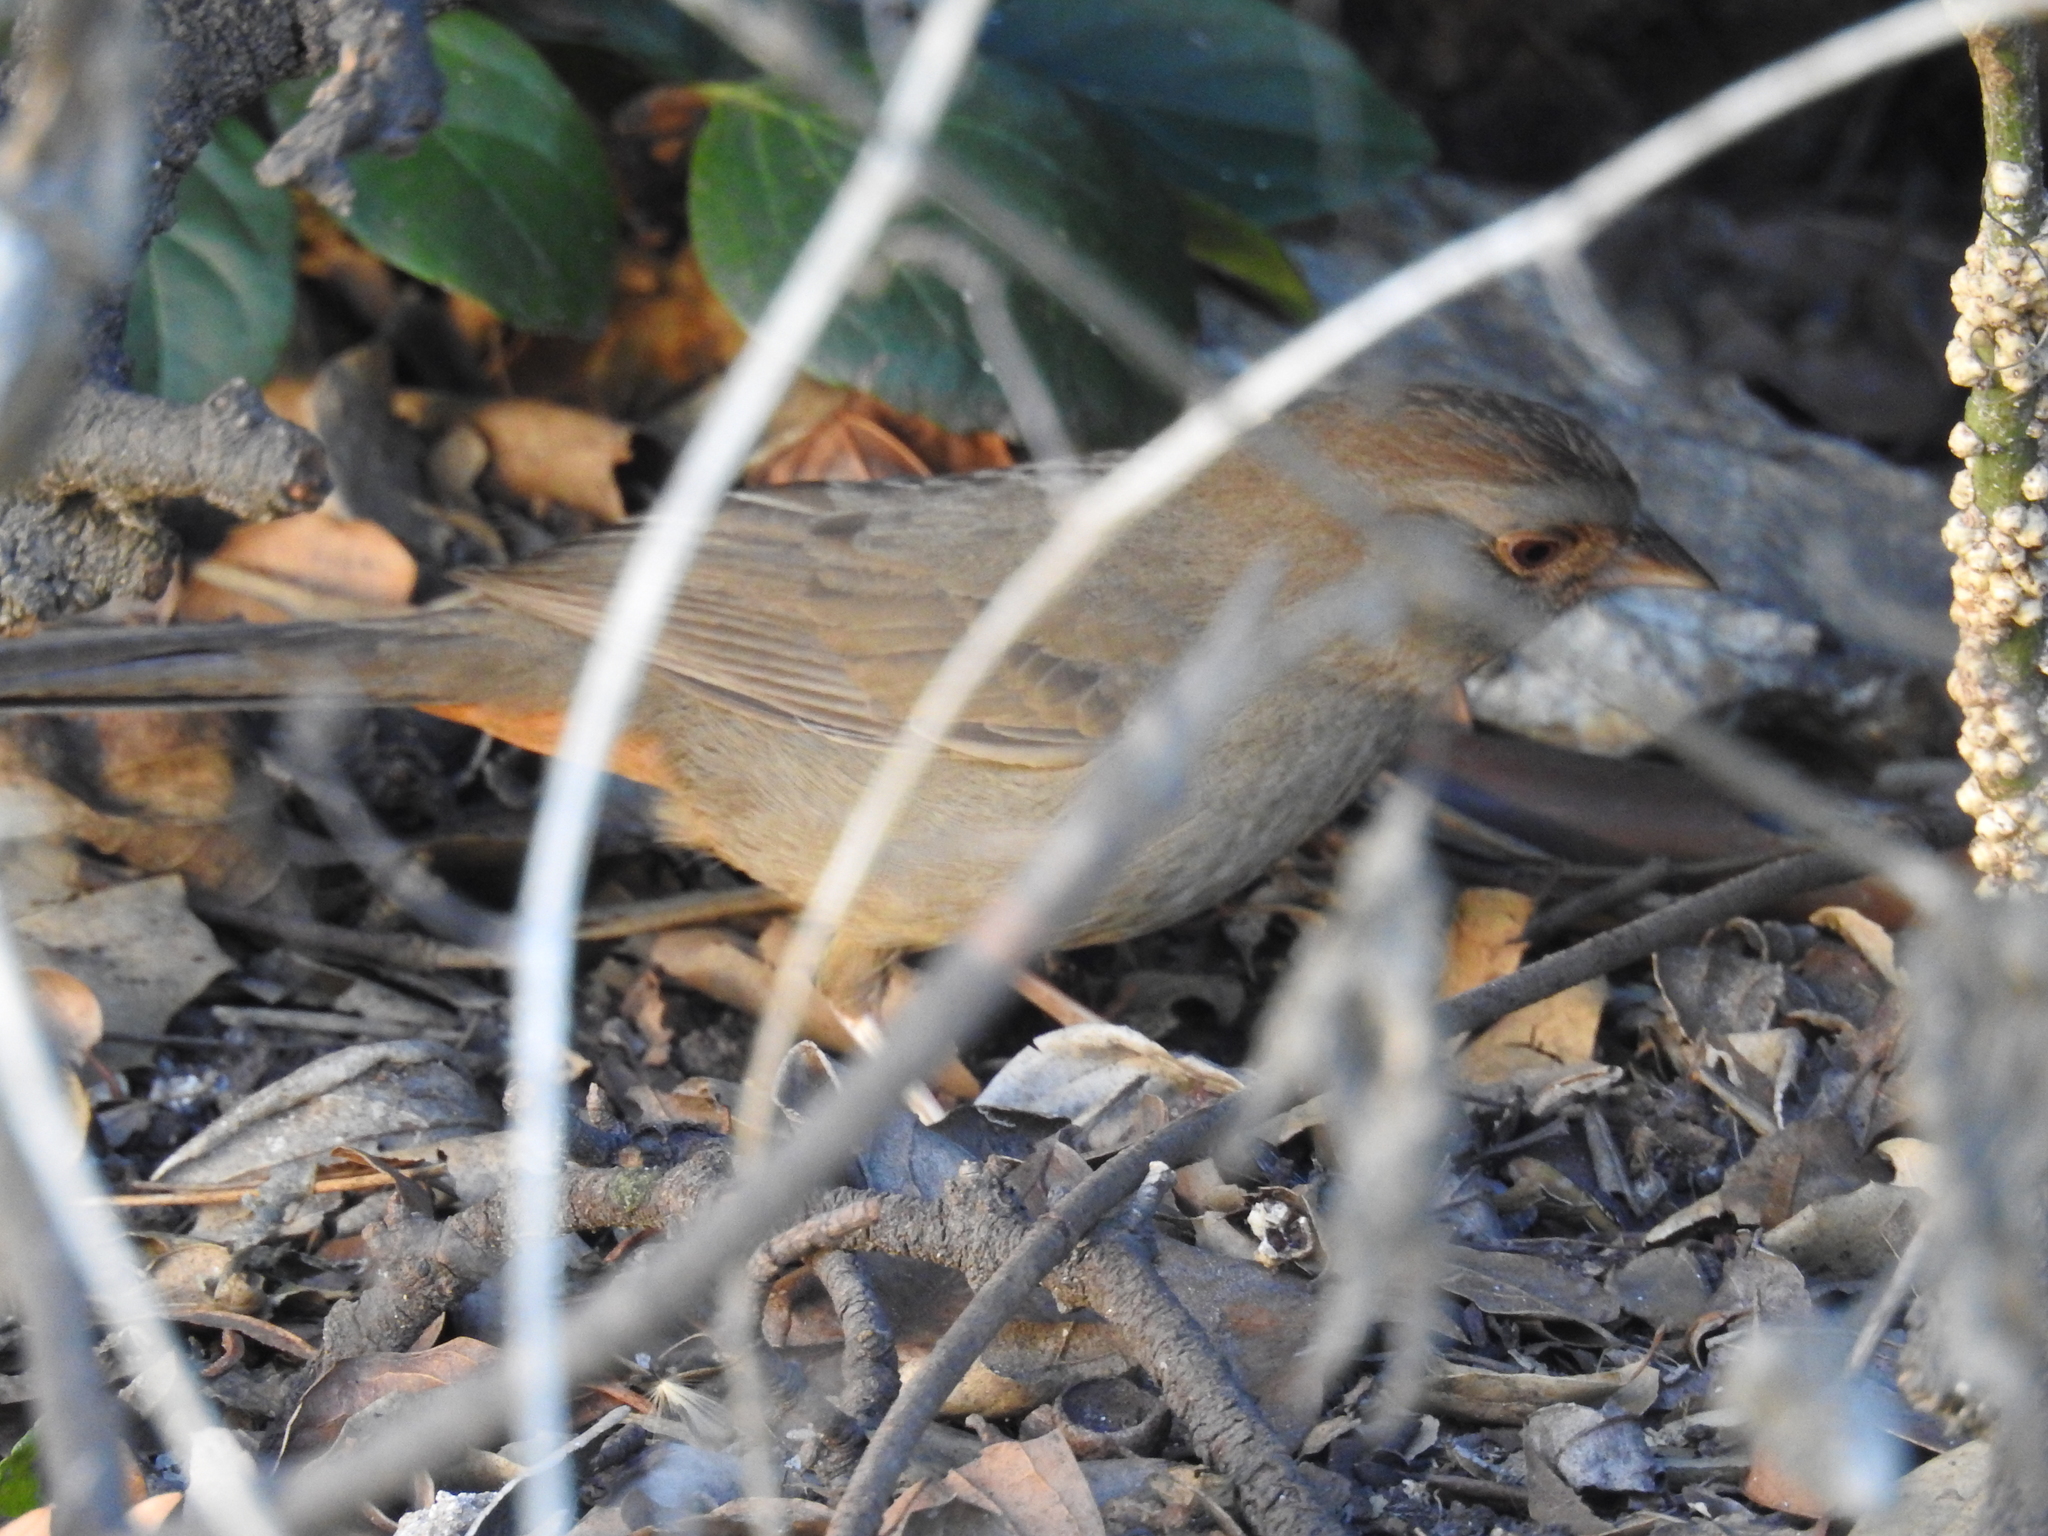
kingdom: Animalia
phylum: Chordata
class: Aves
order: Passeriformes
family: Passerellidae
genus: Melozone
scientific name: Melozone crissalis
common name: California towhee
